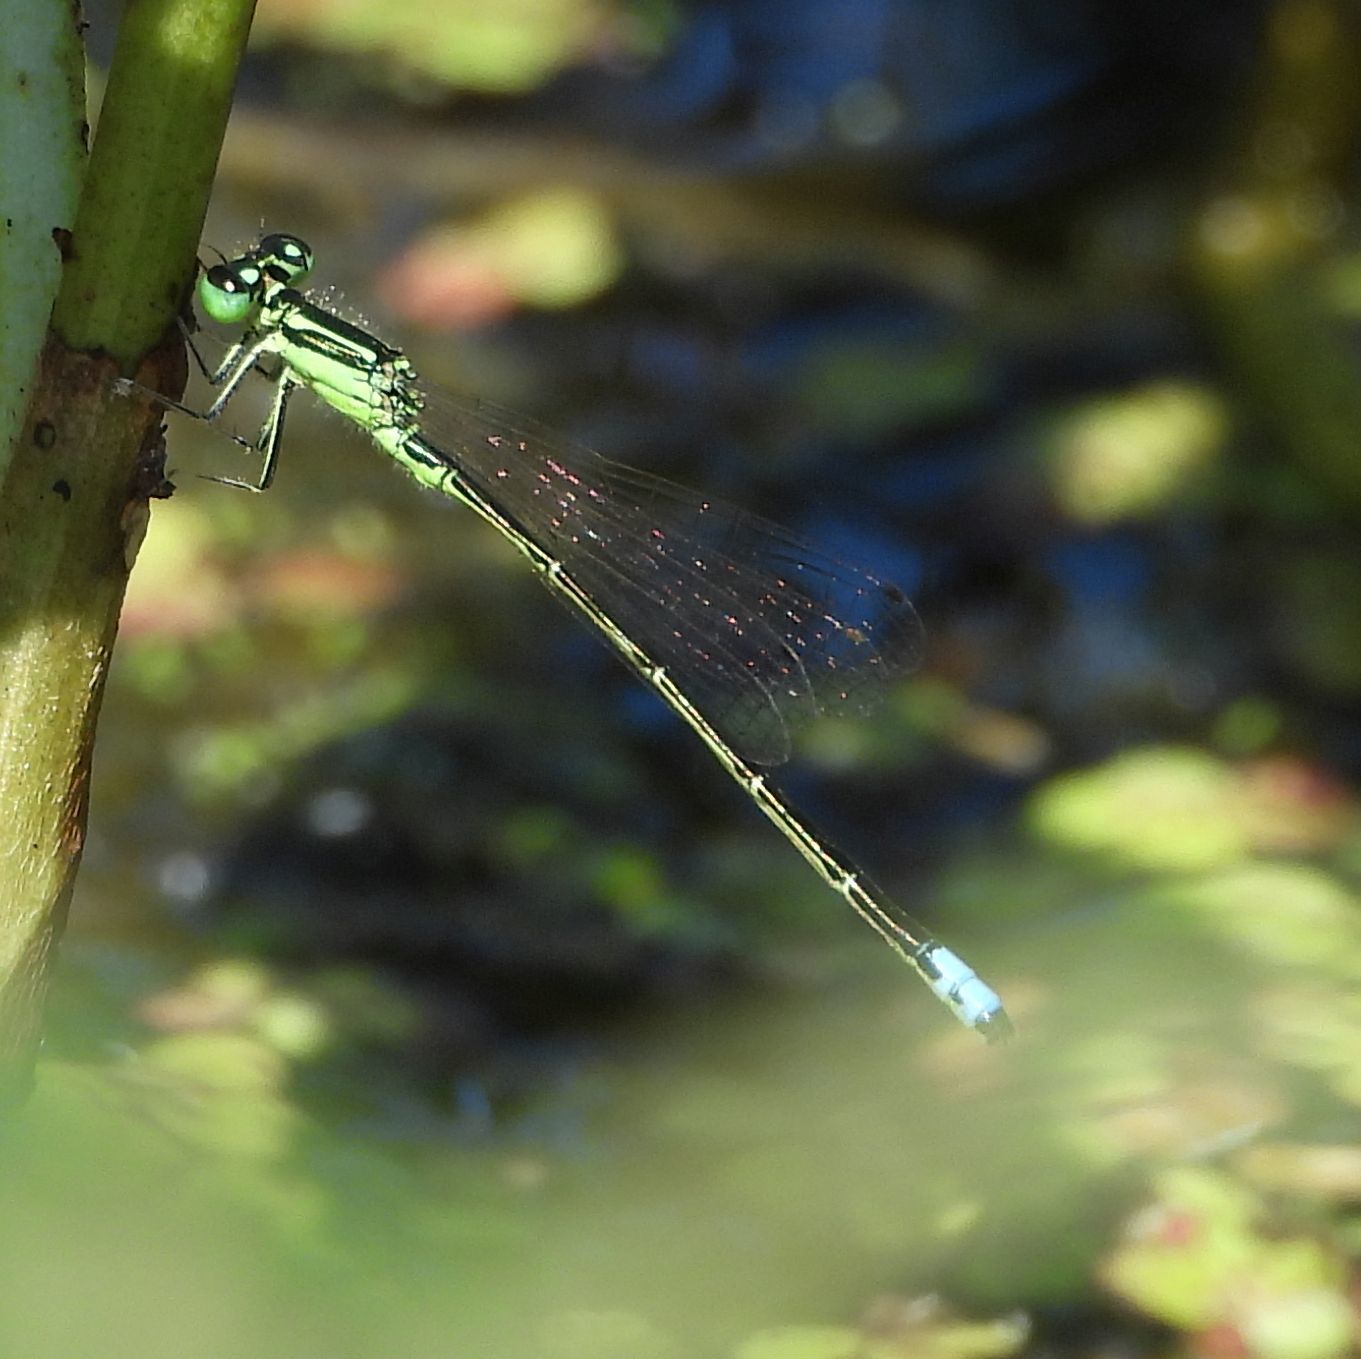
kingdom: Animalia
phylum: Arthropoda
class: Insecta
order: Odonata
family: Coenagrionidae
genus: Ischnura
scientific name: Ischnura verticalis
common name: Eastern forktail
